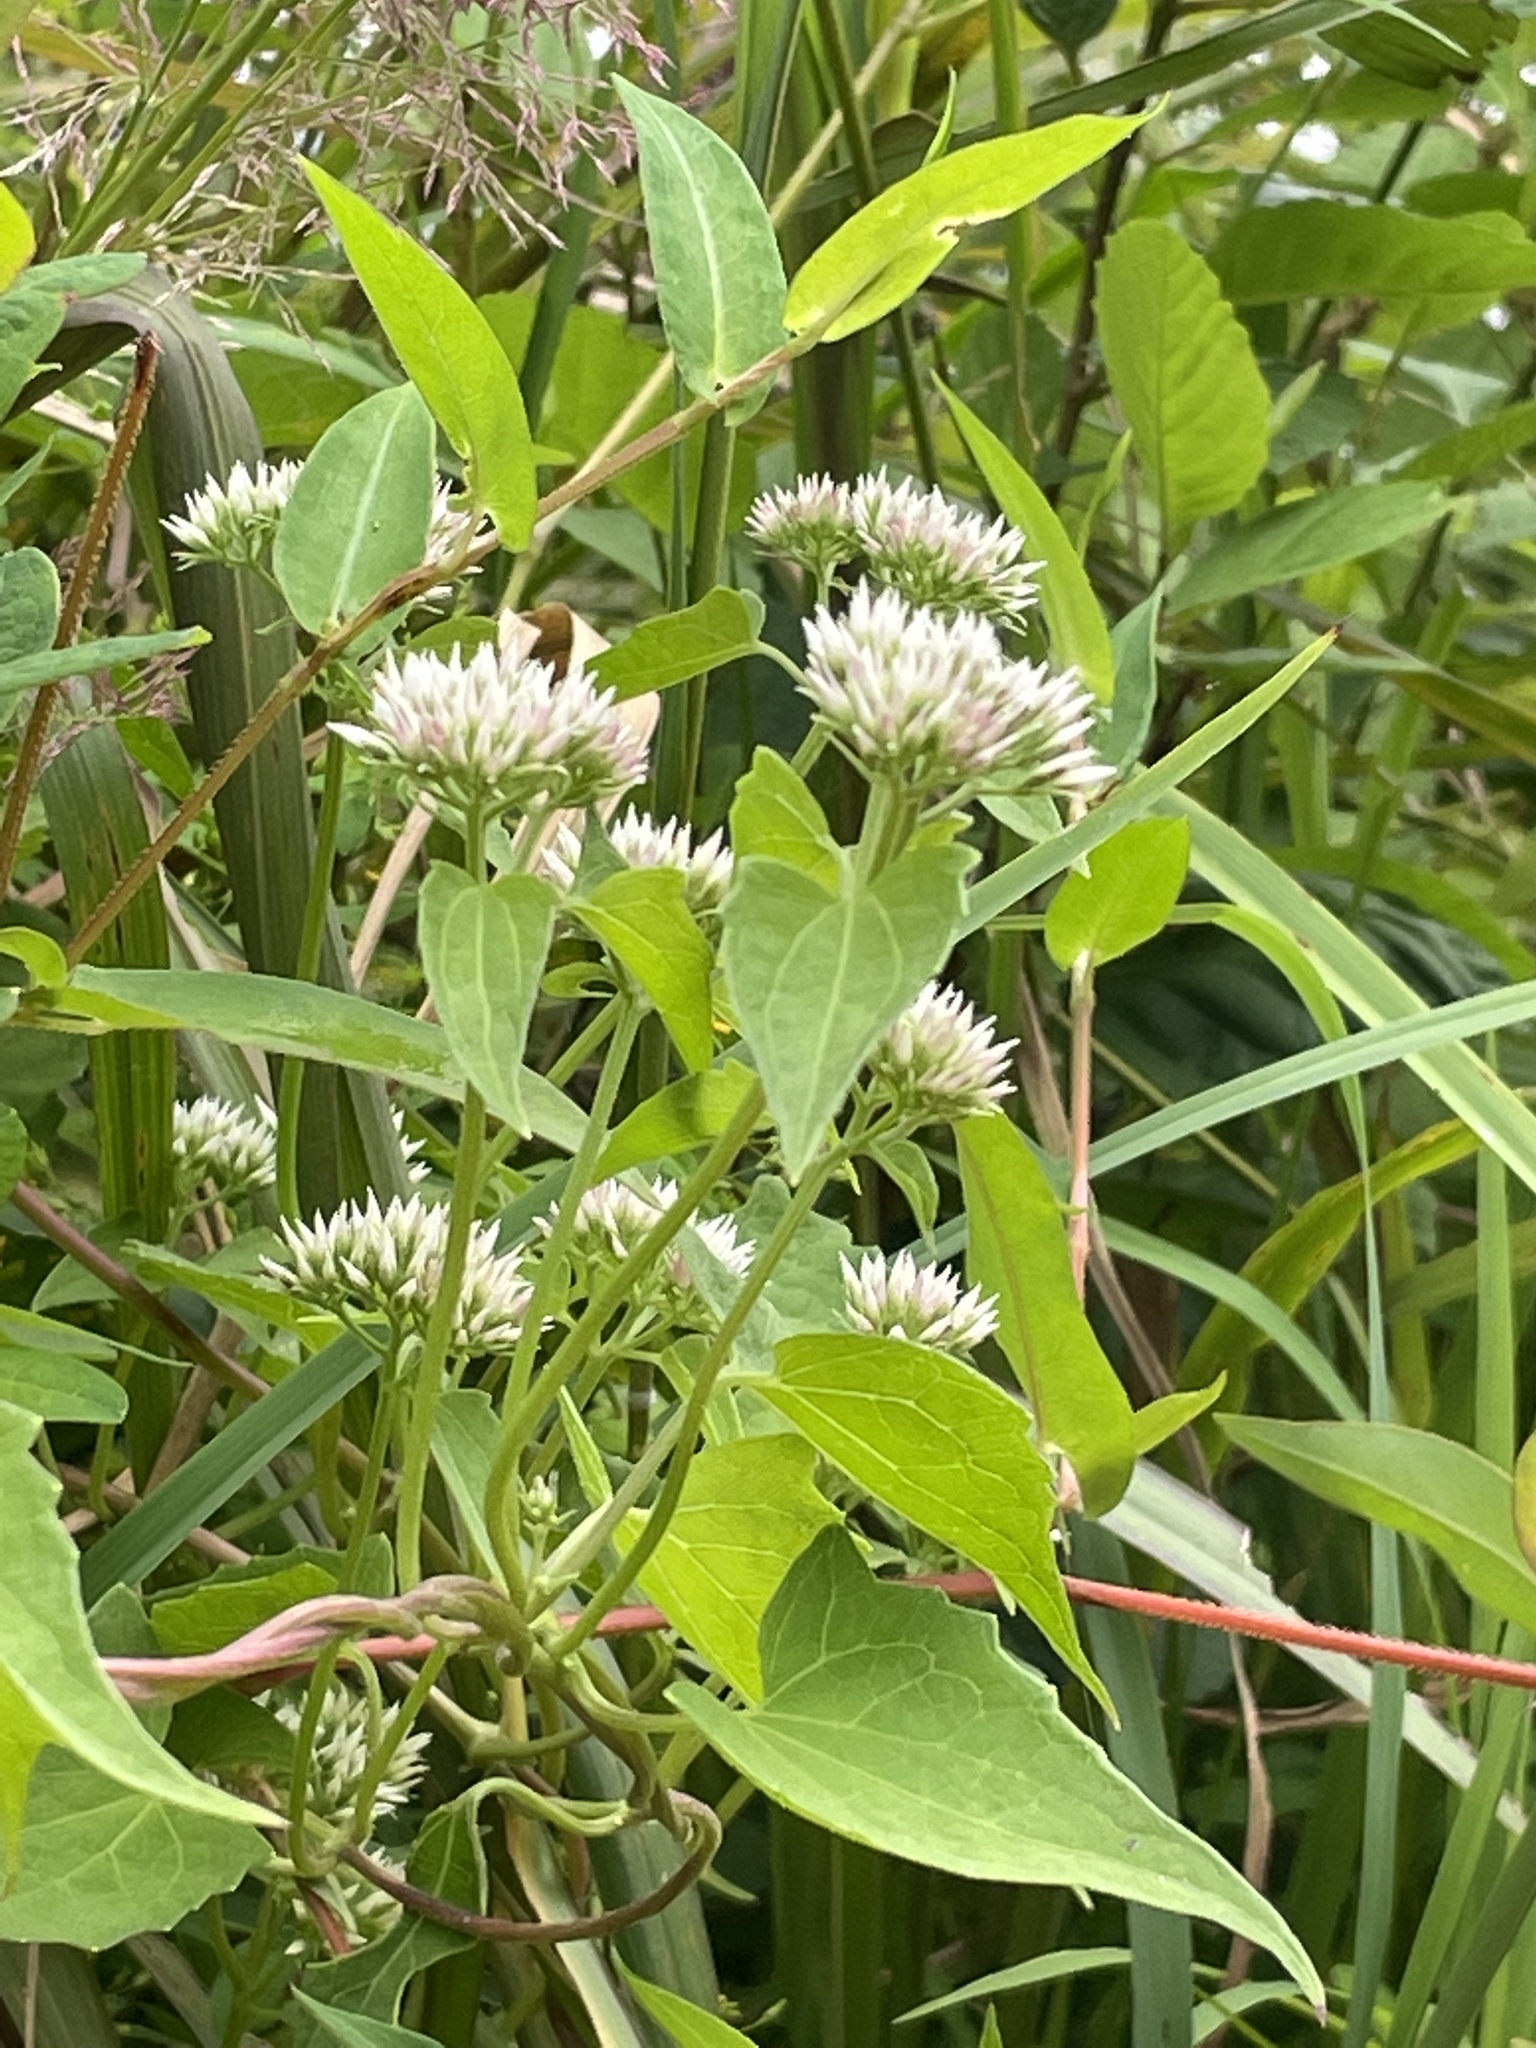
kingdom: Plantae
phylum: Tracheophyta
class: Magnoliopsida
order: Asterales
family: Asteraceae
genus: Mikania
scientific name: Mikania scandens
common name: Climbing hempvine
